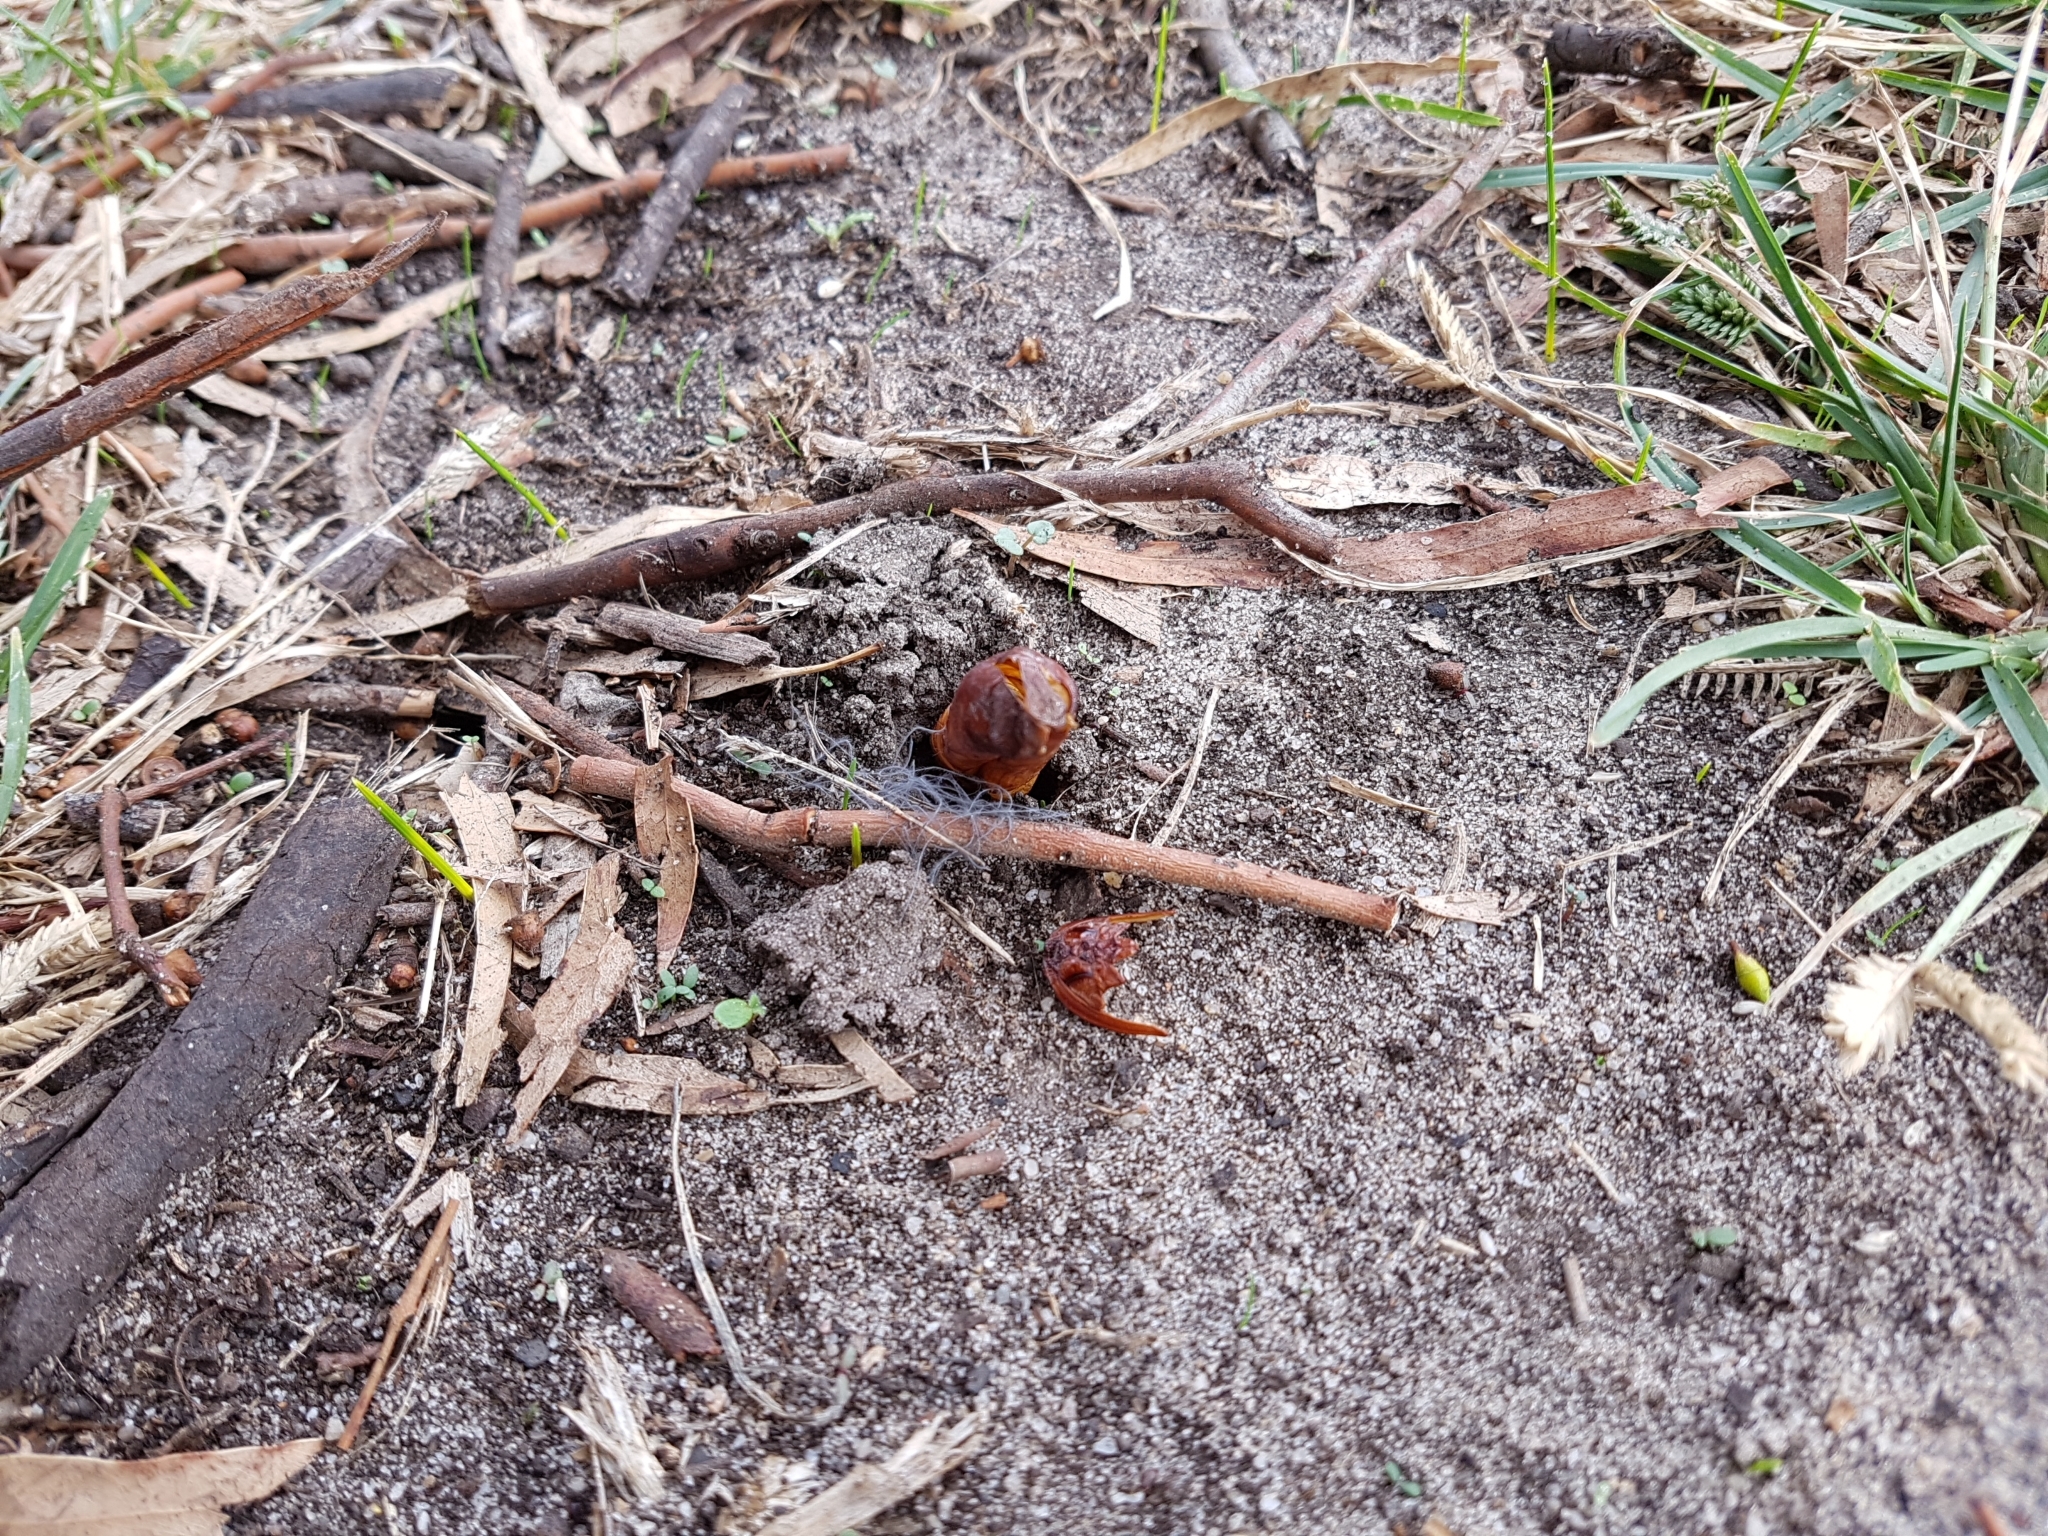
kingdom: Animalia
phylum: Arthropoda
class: Insecta
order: Lepidoptera
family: Hepialidae
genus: Abantiades
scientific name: Abantiades atripalpis
